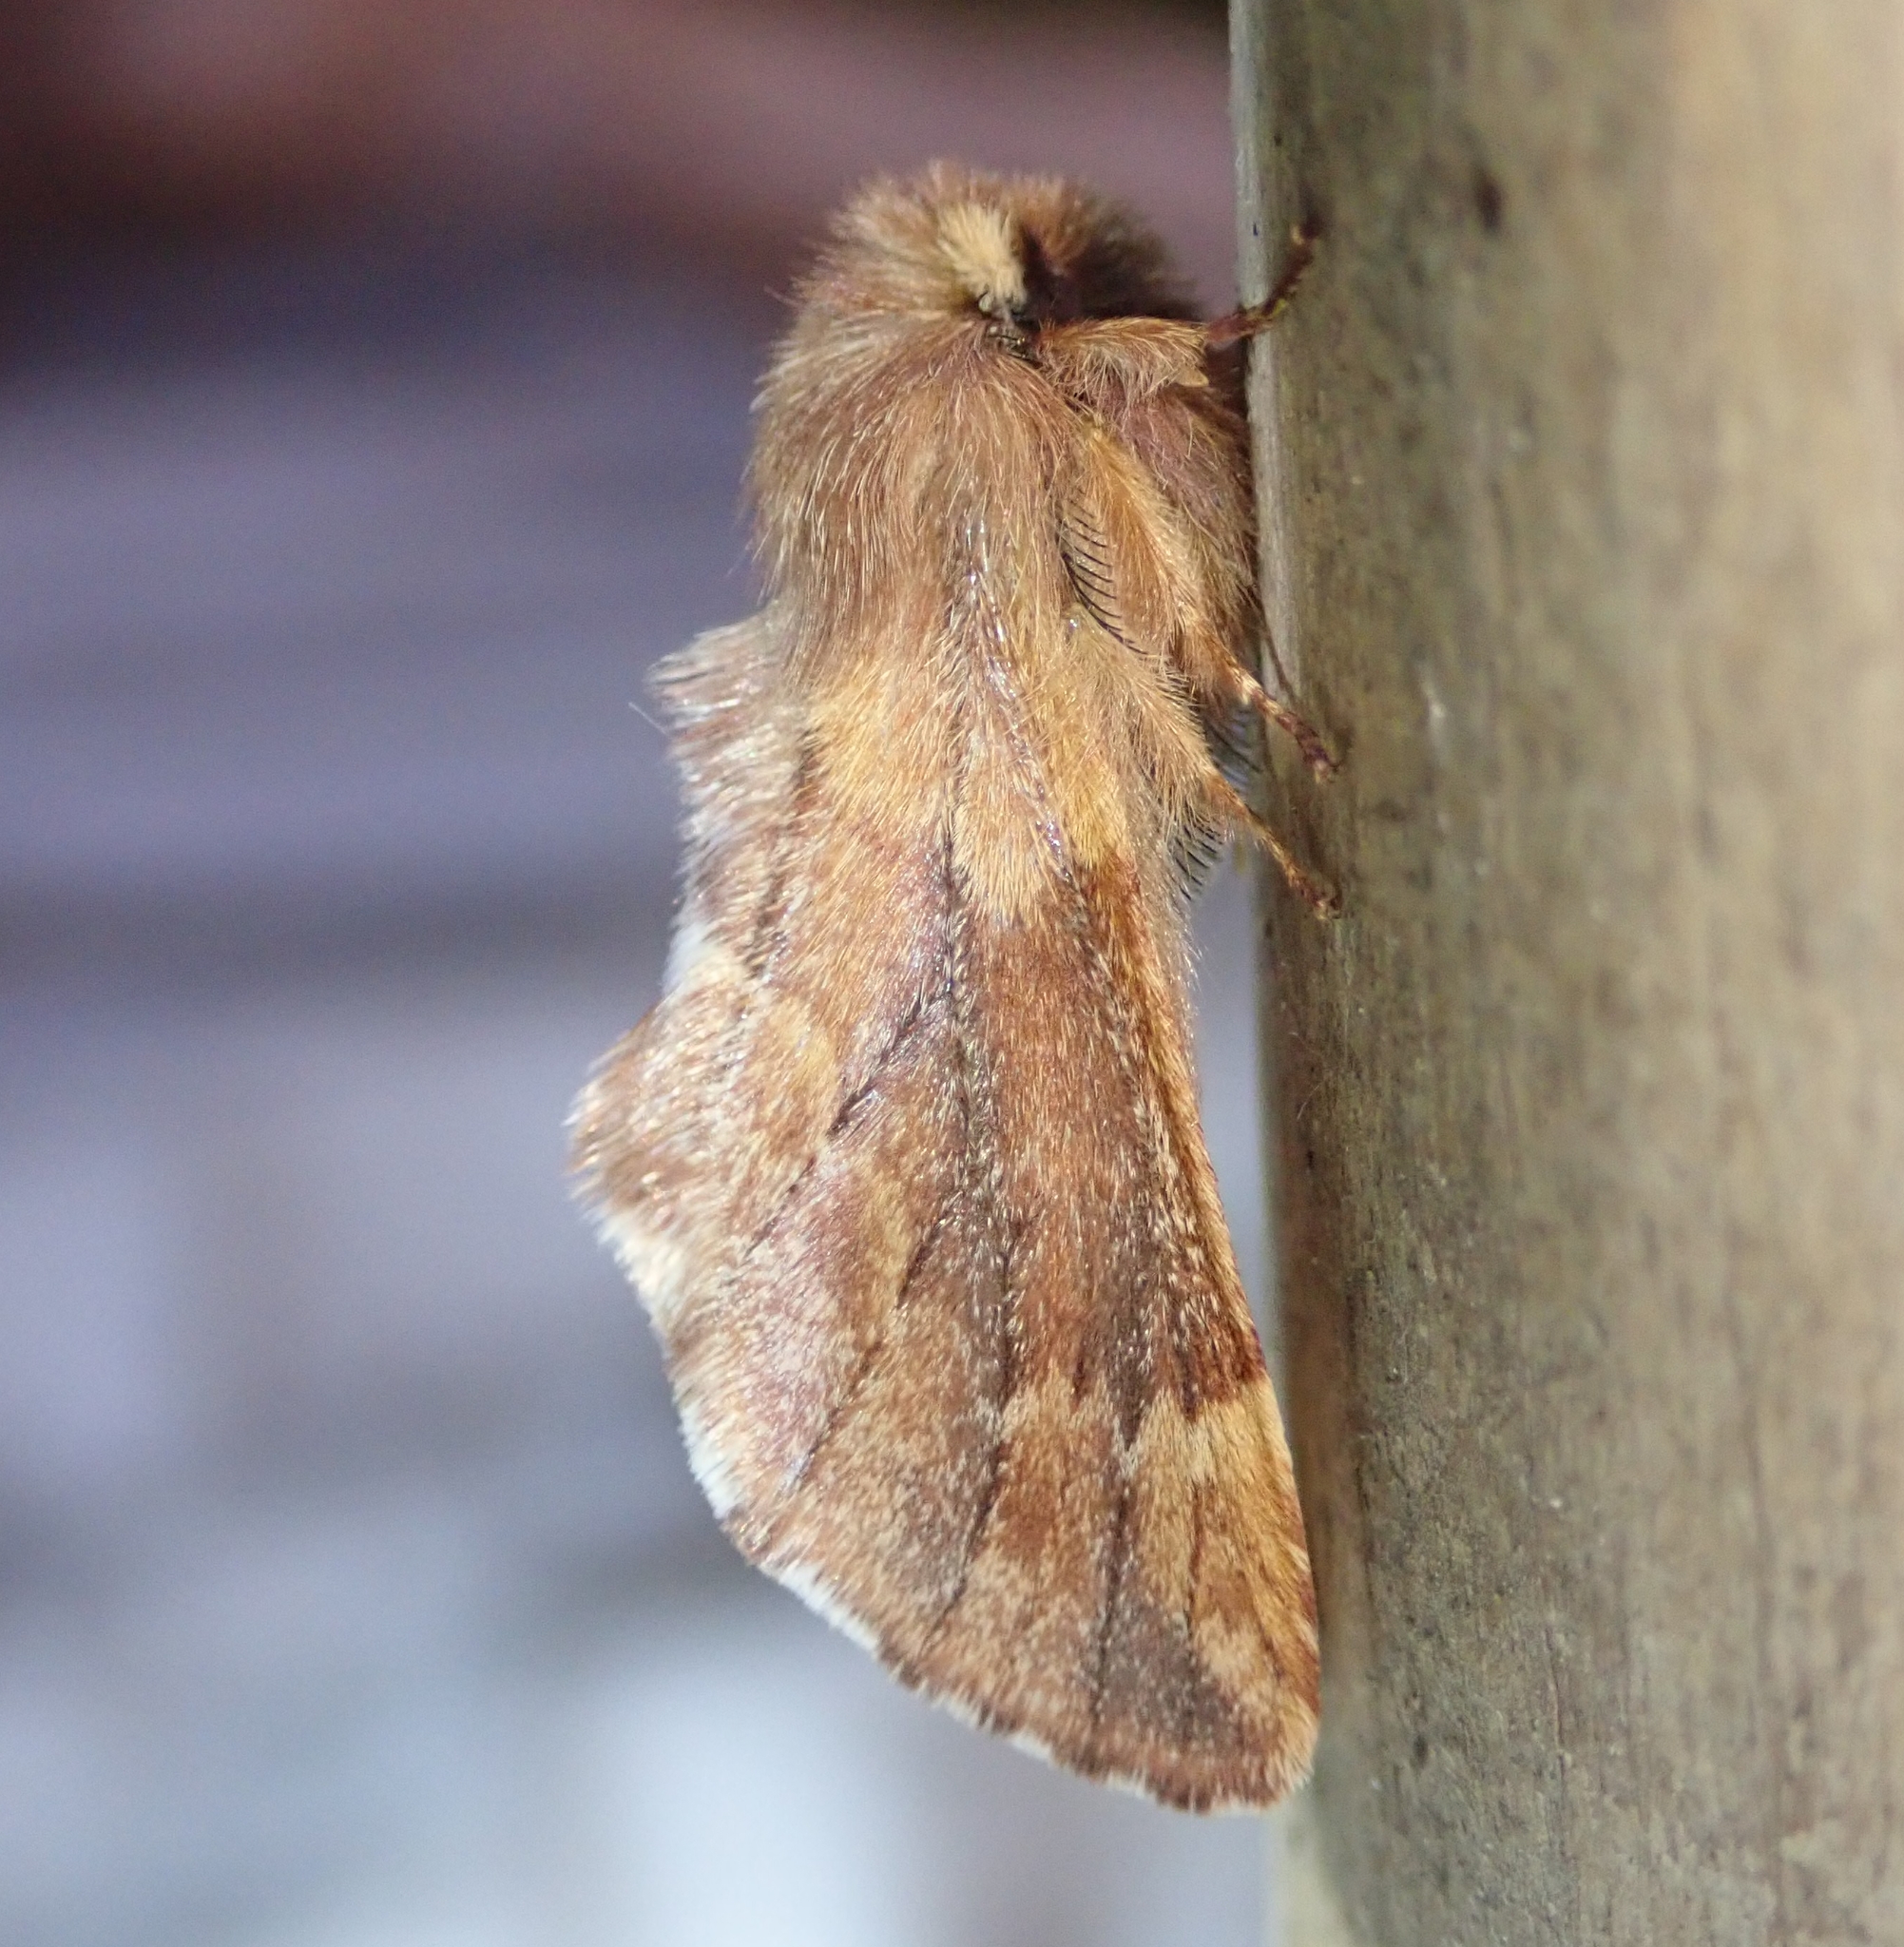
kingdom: Animalia
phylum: Arthropoda
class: Insecta
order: Lepidoptera
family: Notodontidae
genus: Ptilophora
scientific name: Ptilophora plumigera
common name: Plumed prominent
